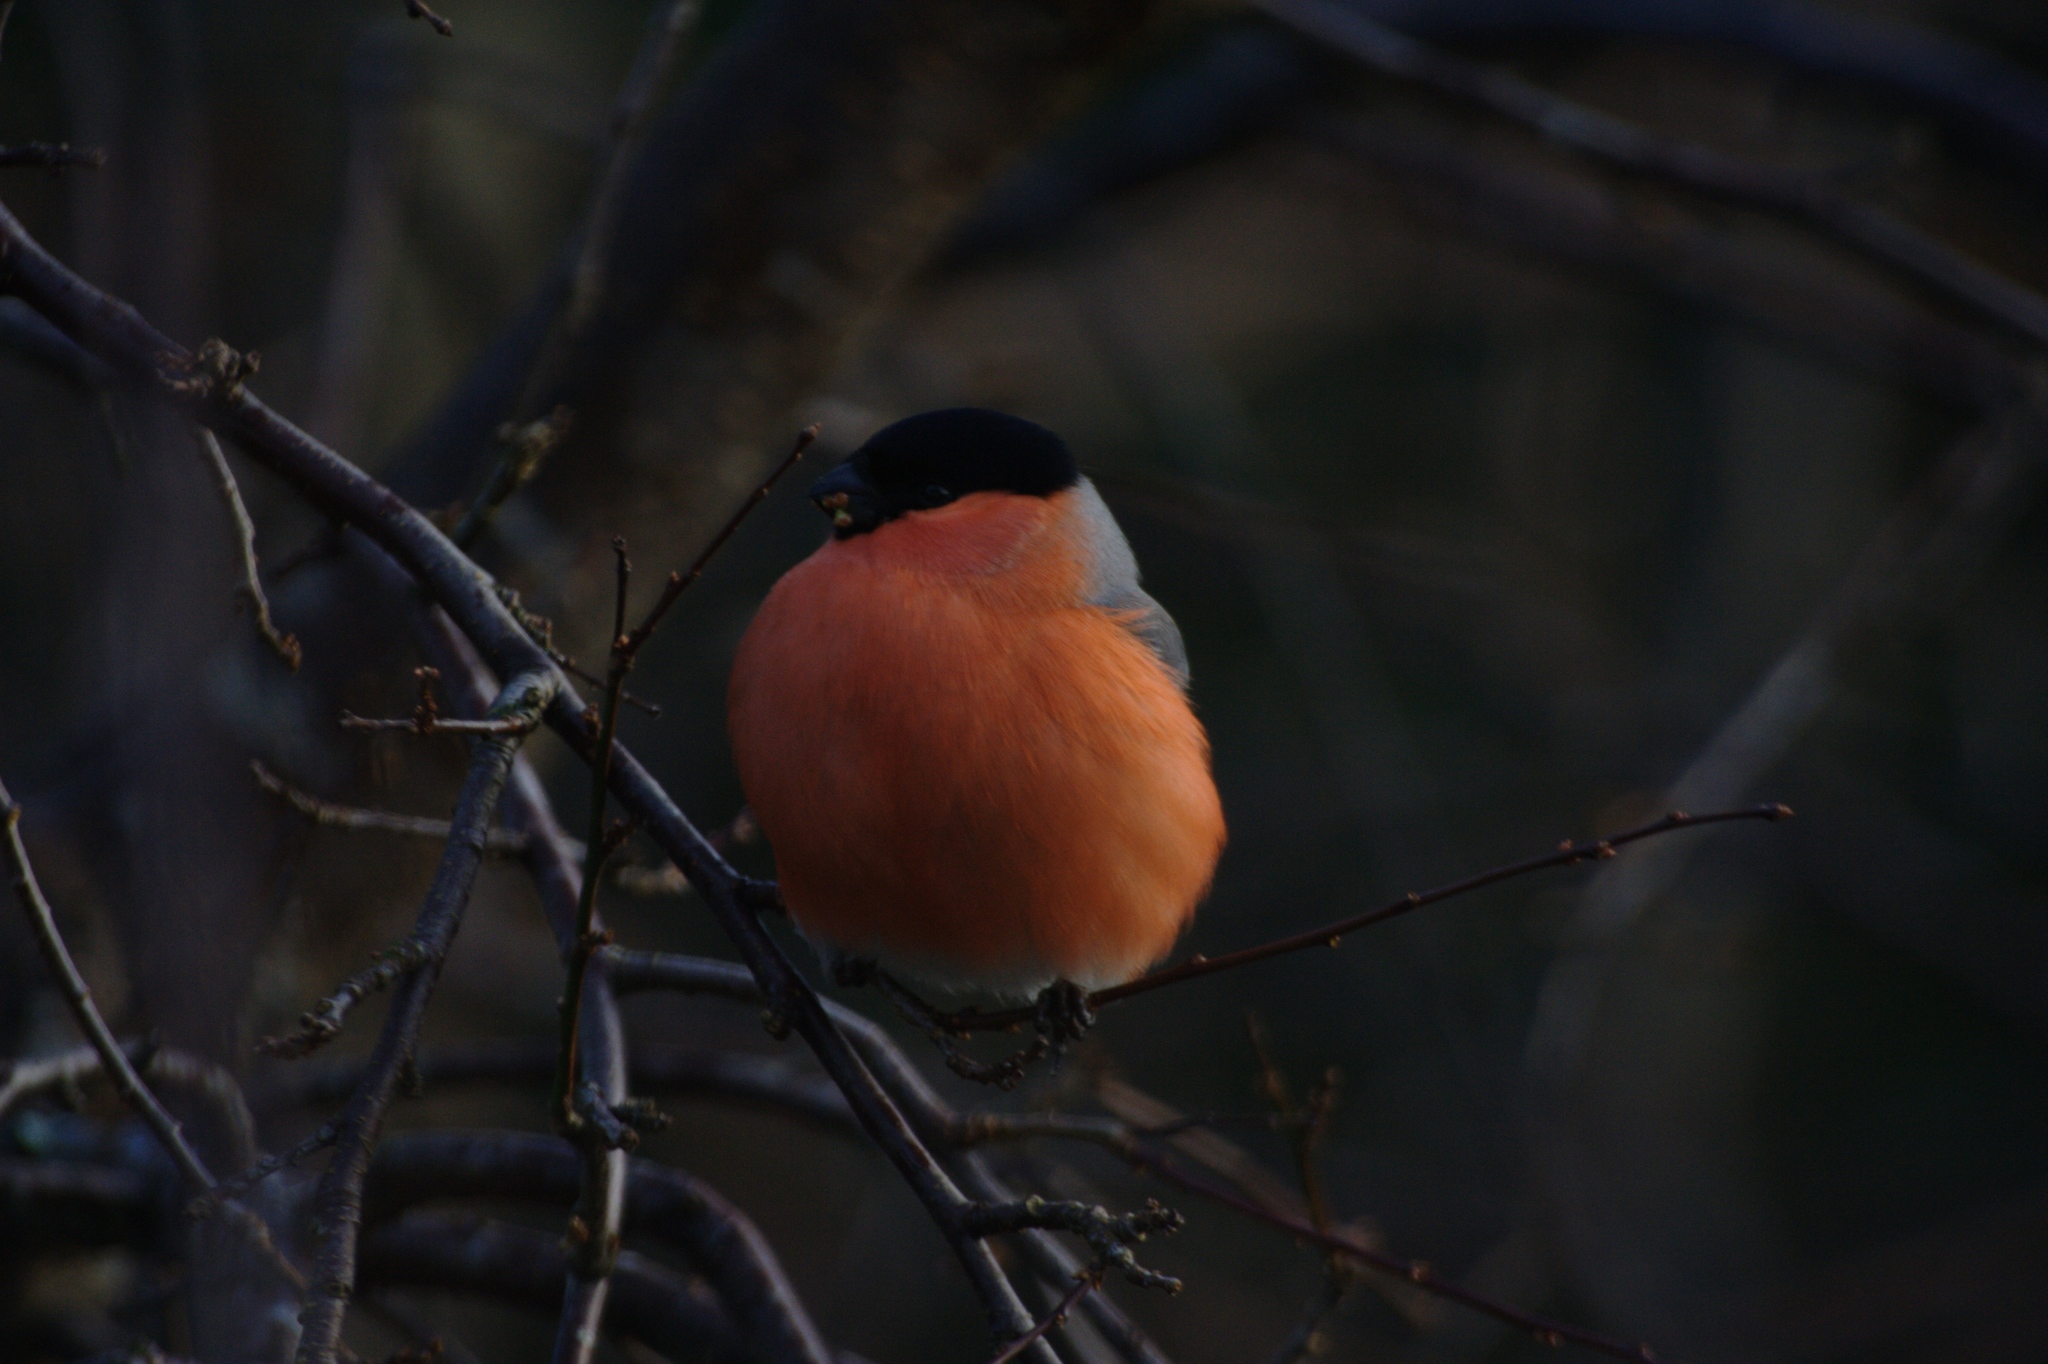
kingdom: Animalia
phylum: Chordata
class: Aves
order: Passeriformes
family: Fringillidae
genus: Pyrrhula
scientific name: Pyrrhula pyrrhula
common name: Eurasian bullfinch
